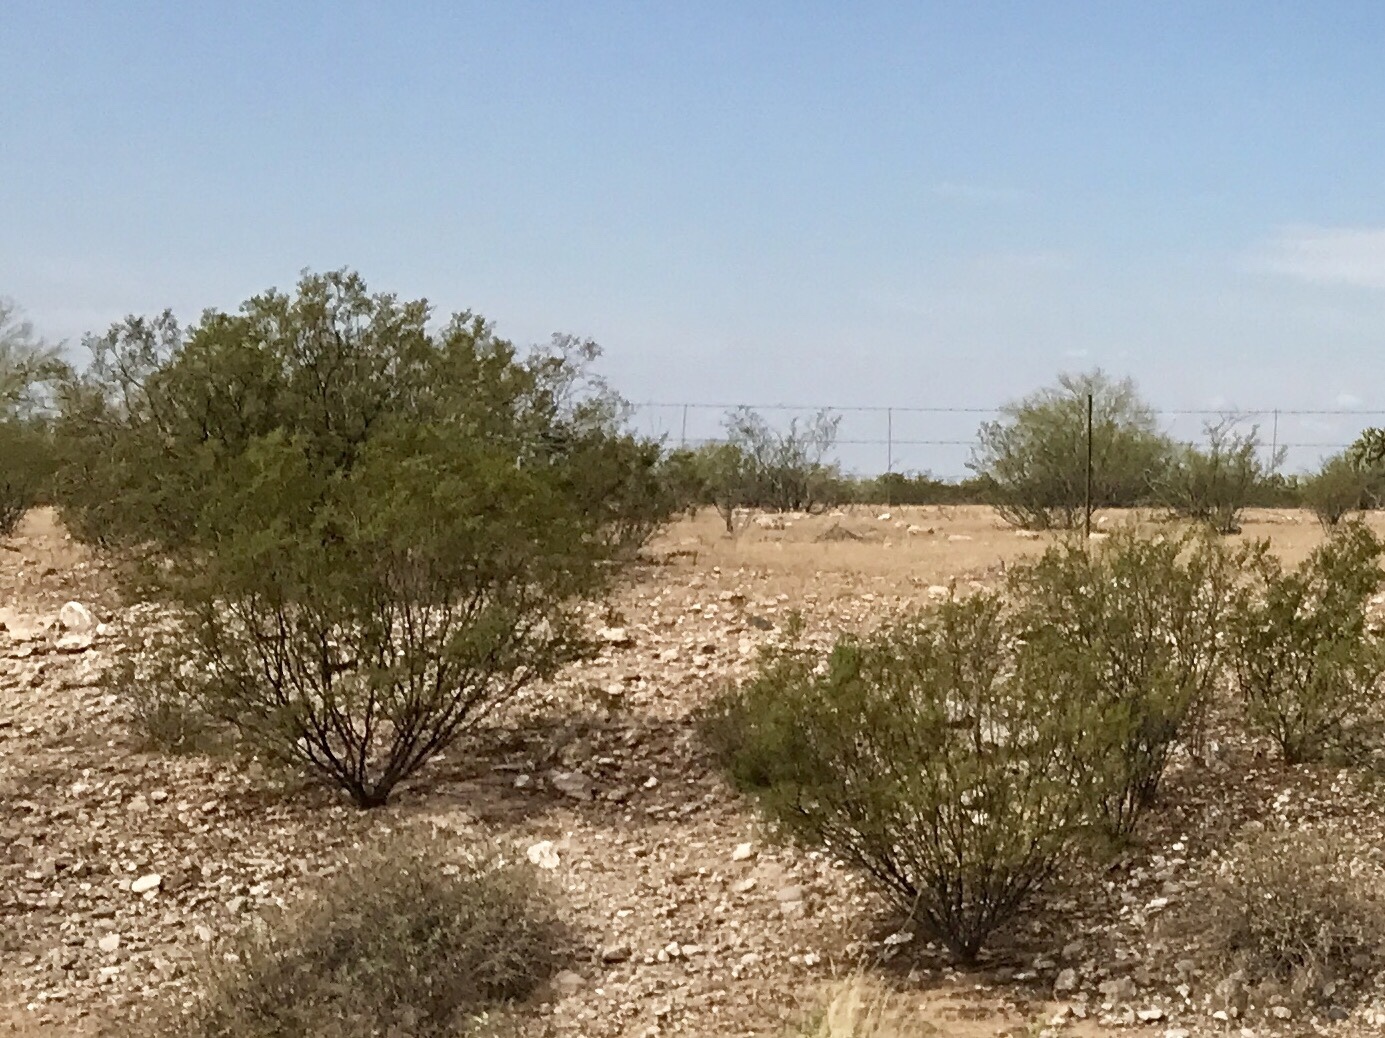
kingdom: Plantae
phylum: Tracheophyta
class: Magnoliopsida
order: Zygophyllales
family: Zygophyllaceae
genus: Larrea
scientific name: Larrea tridentata
